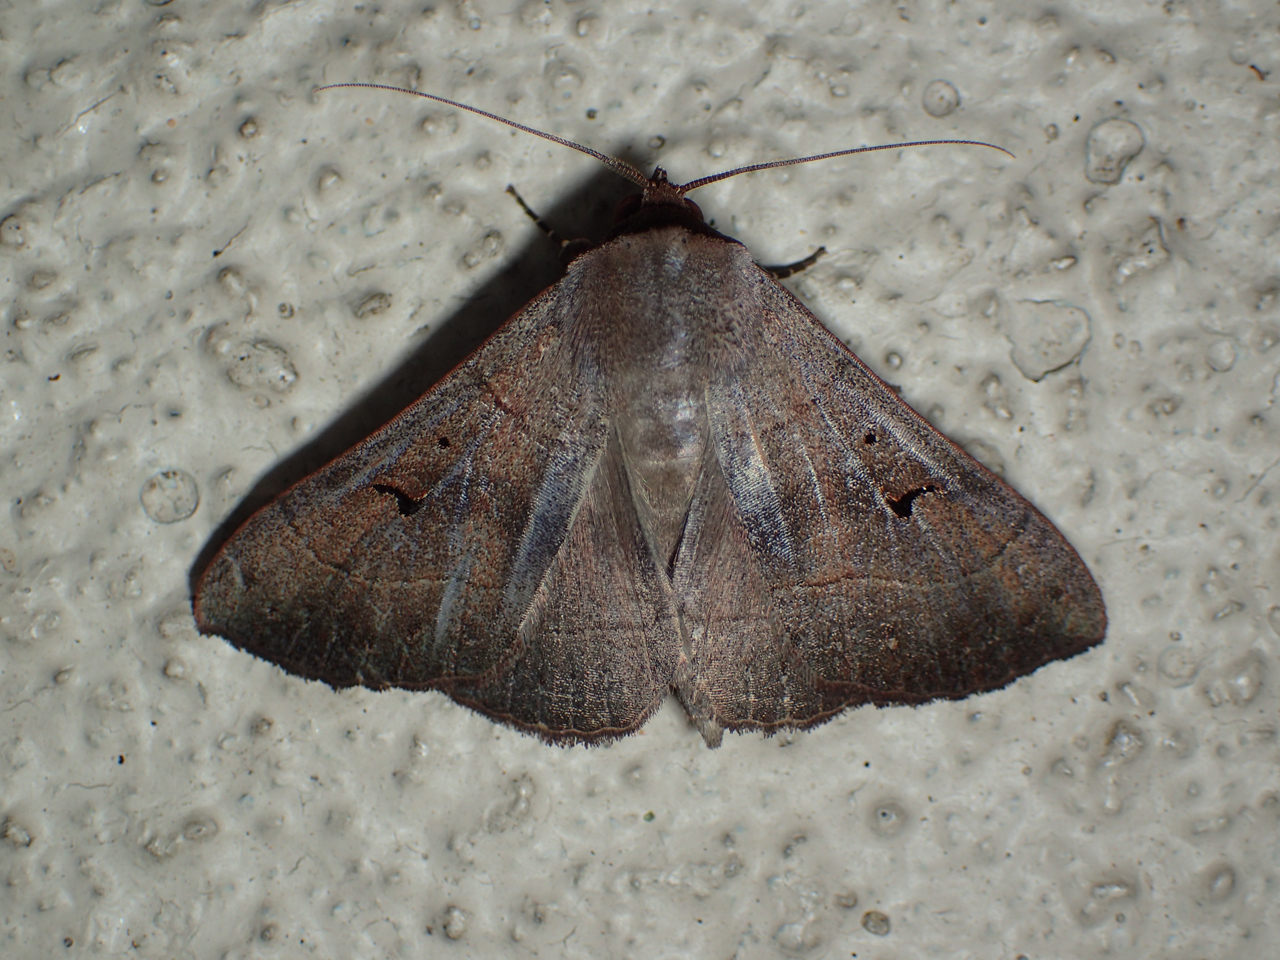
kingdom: Animalia
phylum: Arthropoda
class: Insecta
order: Lepidoptera
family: Erebidae
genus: Panopoda
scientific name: Panopoda carneicosta
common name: Brown panopoda moth
